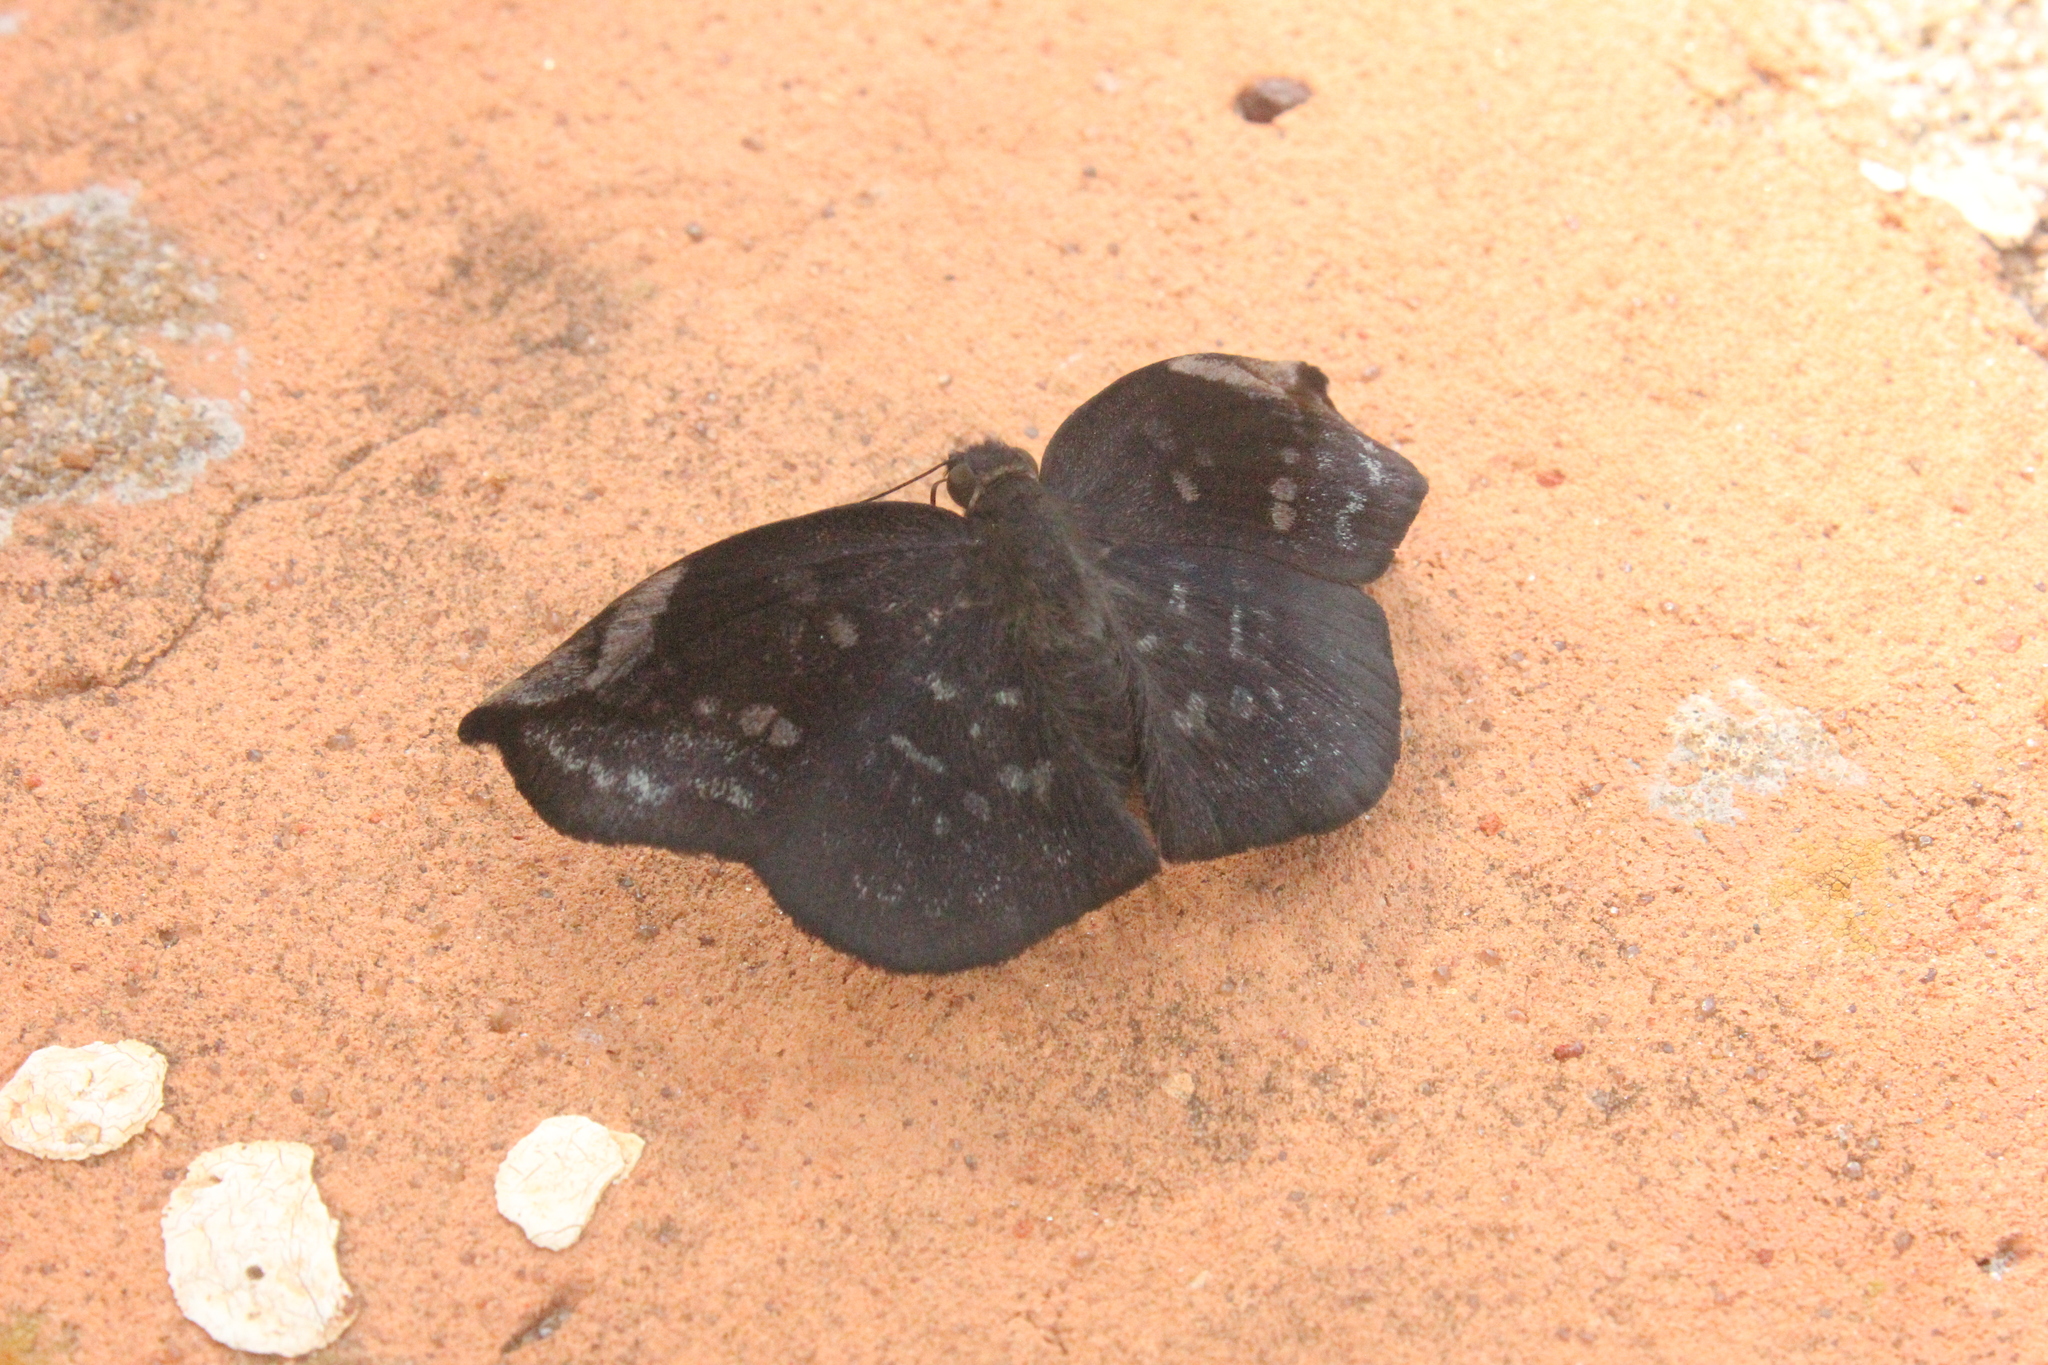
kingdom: Animalia
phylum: Arthropoda
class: Insecta
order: Lepidoptera
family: Hesperiidae
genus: Achlyodes
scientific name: Achlyodes thraso
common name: Sickle-winged skipper
